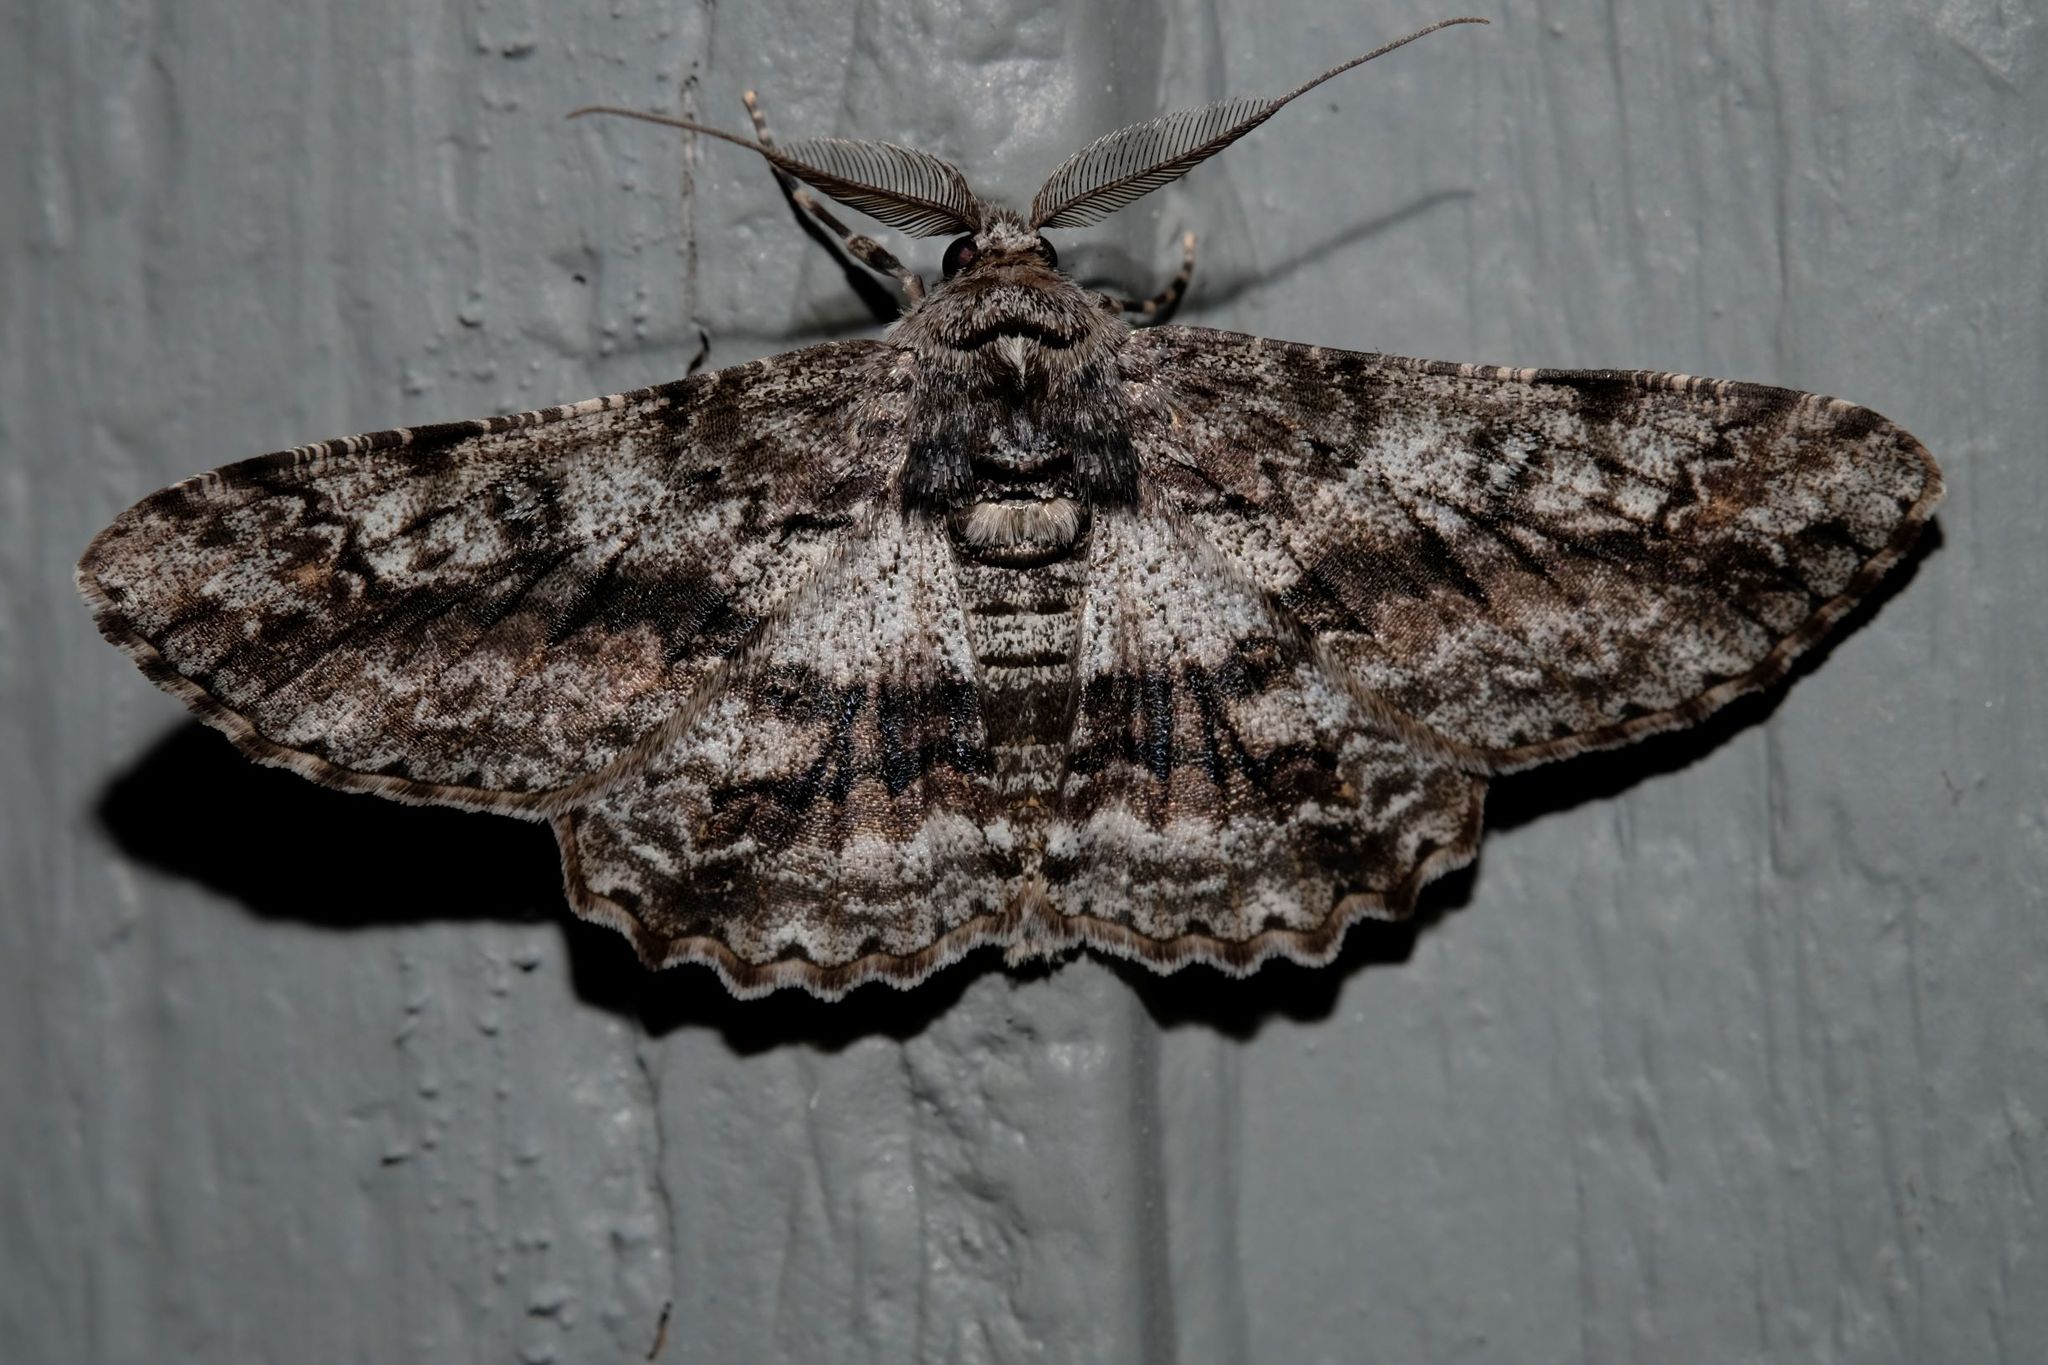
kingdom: Animalia
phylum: Arthropoda
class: Insecta
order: Lepidoptera
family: Geometridae
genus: Cleora
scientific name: Cleora
